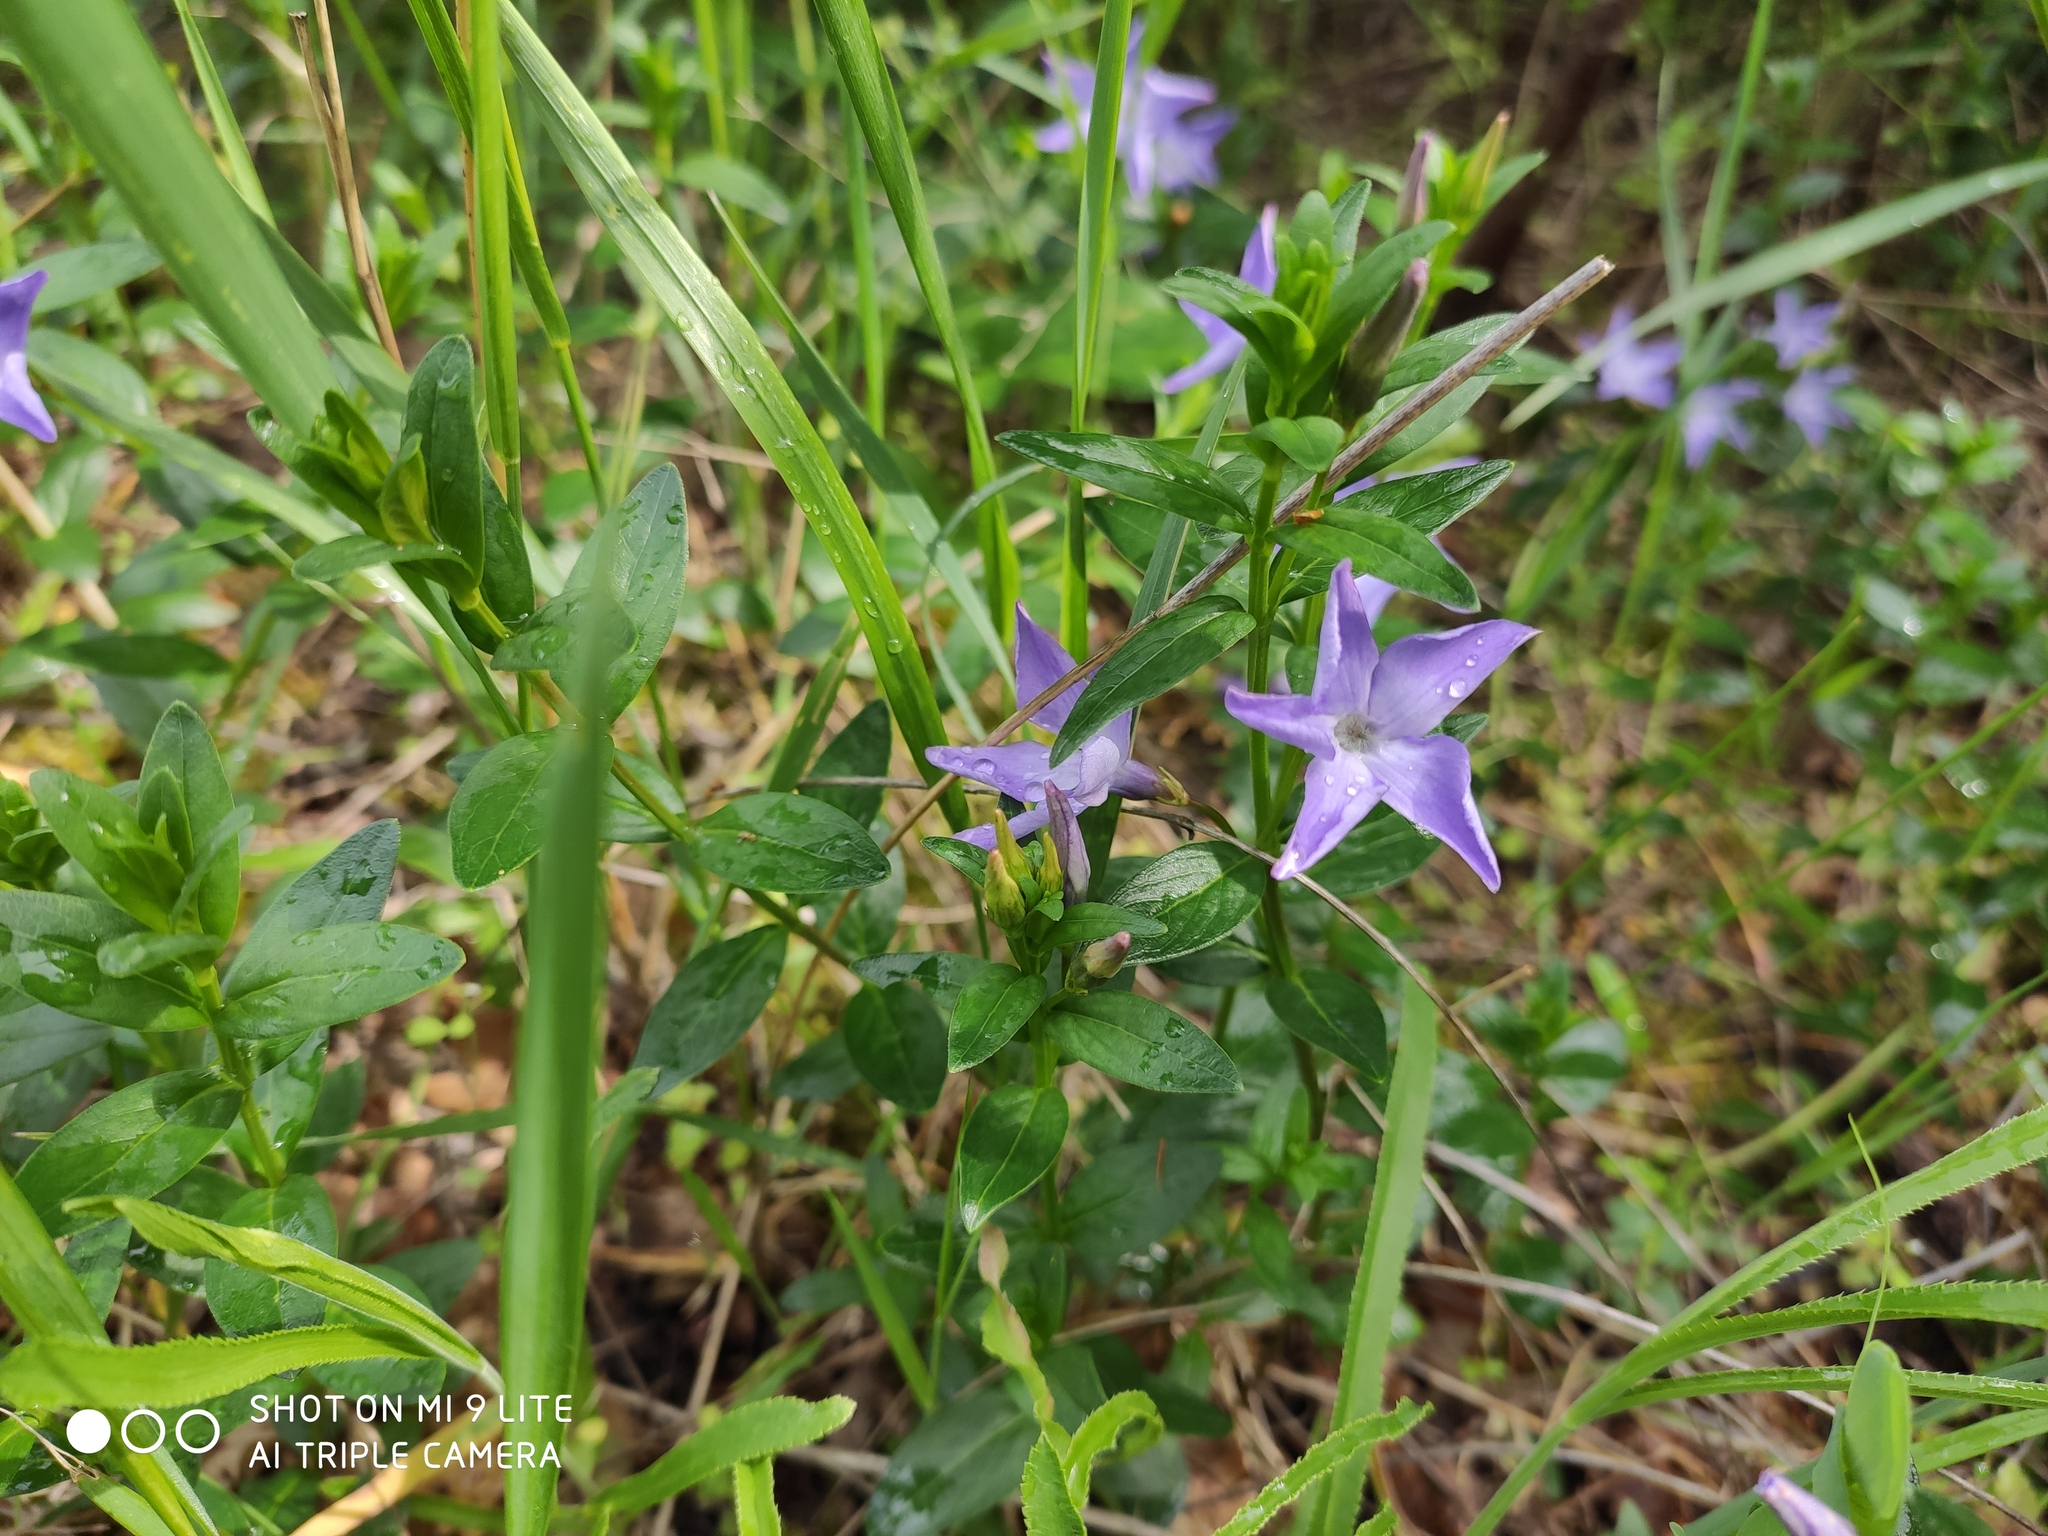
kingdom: Plantae
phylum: Tracheophyta
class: Magnoliopsida
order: Gentianales
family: Apocynaceae
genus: Vinca
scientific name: Vinca herbacea
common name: Herbaceous periwinkle
